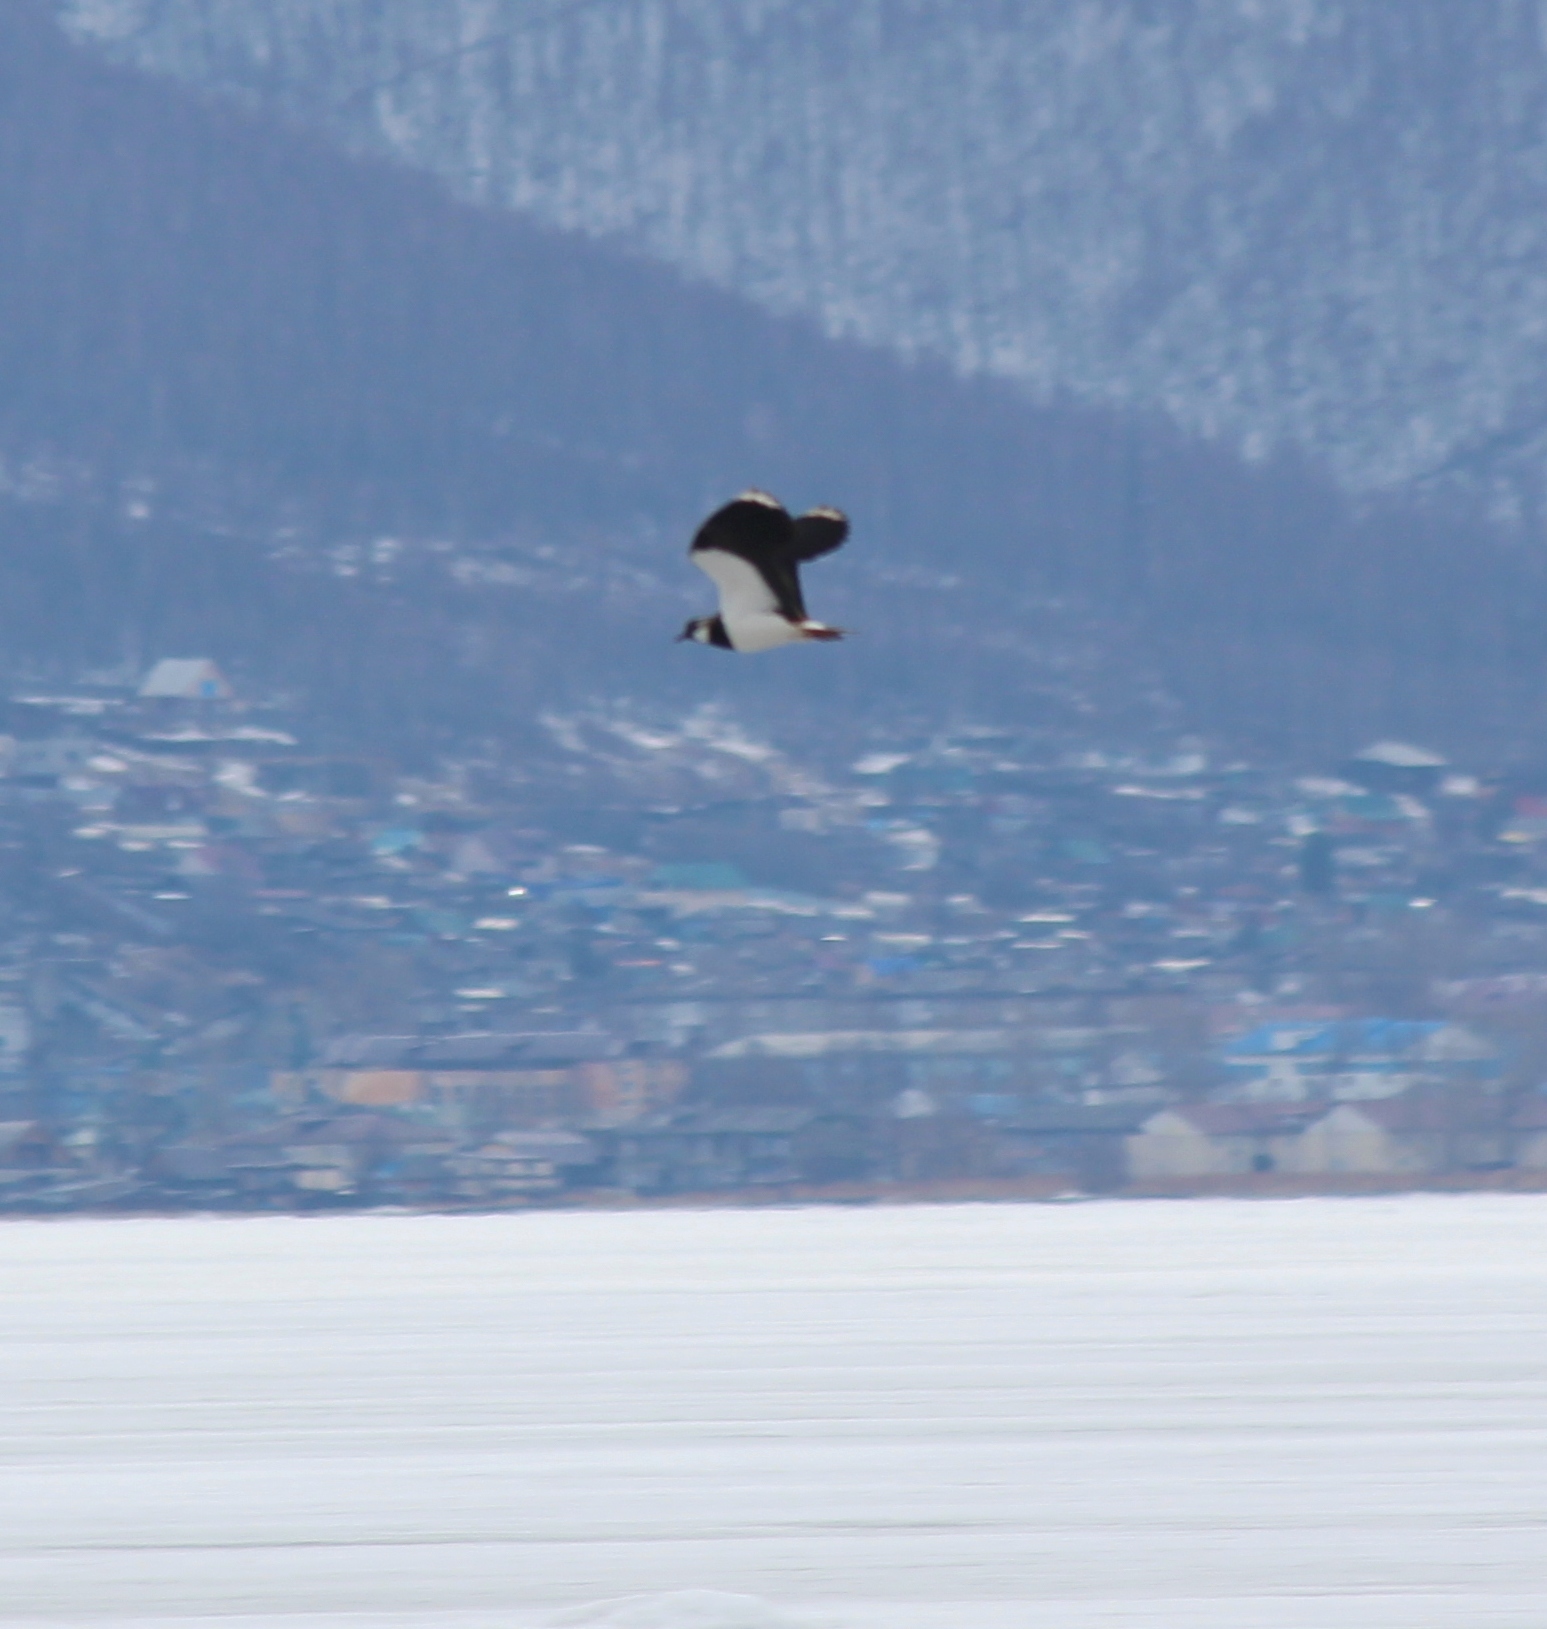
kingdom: Animalia
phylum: Chordata
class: Aves
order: Charadriiformes
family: Charadriidae
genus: Vanellus
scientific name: Vanellus vanellus
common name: Northern lapwing
